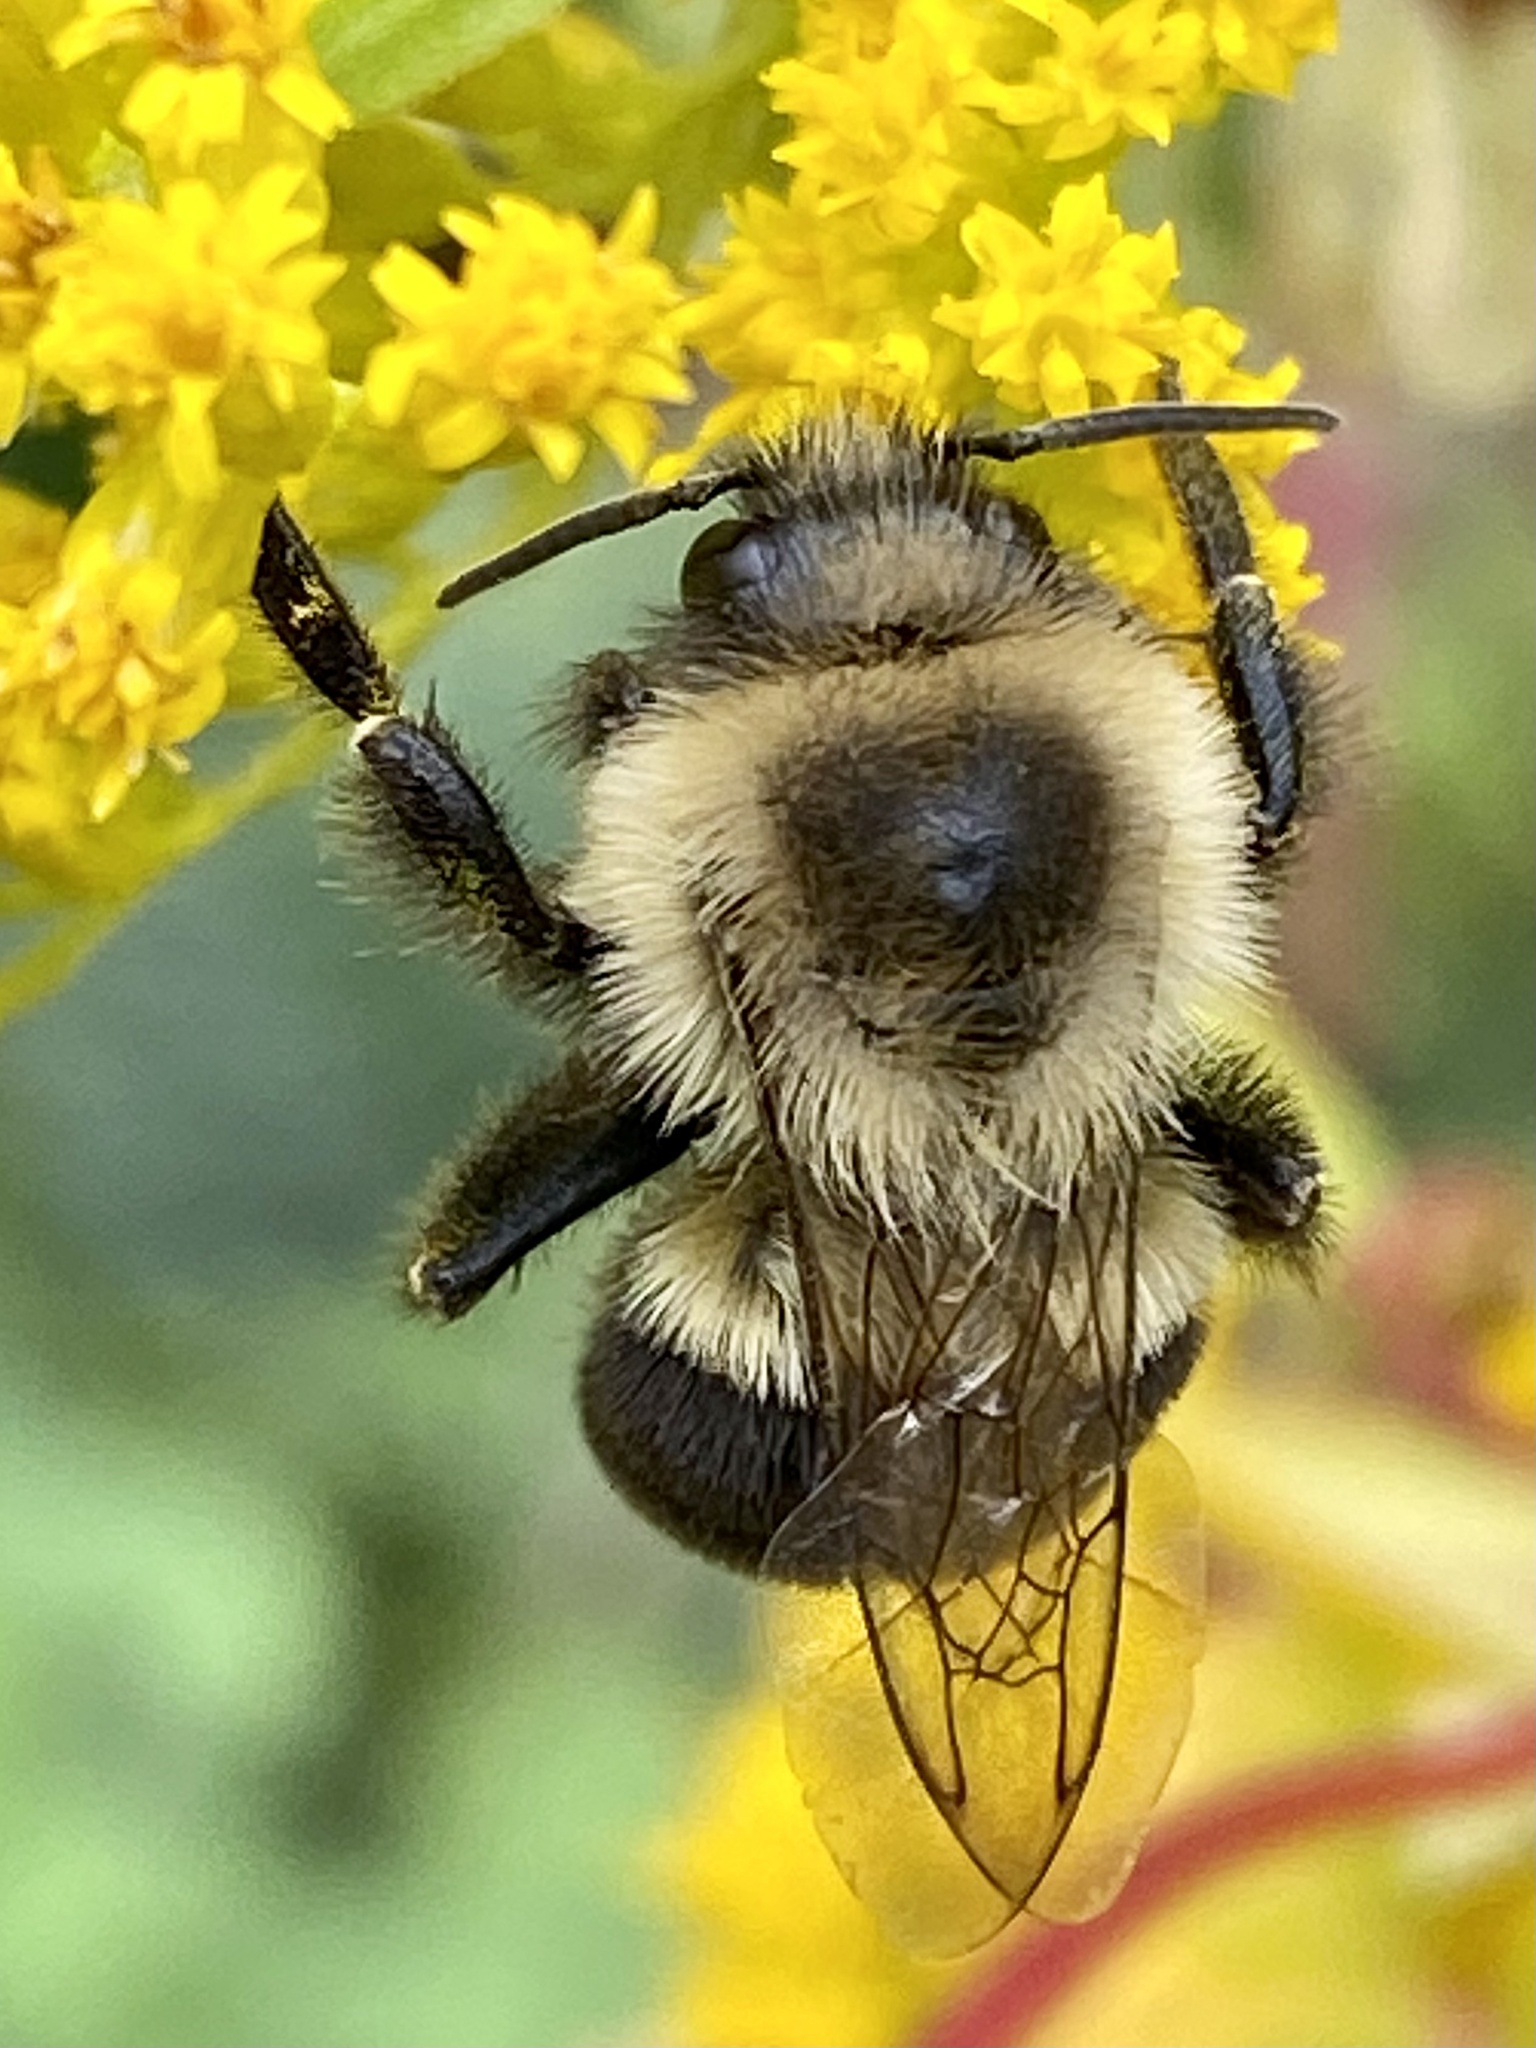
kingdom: Animalia
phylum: Arthropoda
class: Insecta
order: Hymenoptera
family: Apidae
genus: Bombus
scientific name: Bombus impatiens
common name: Common eastern bumble bee
